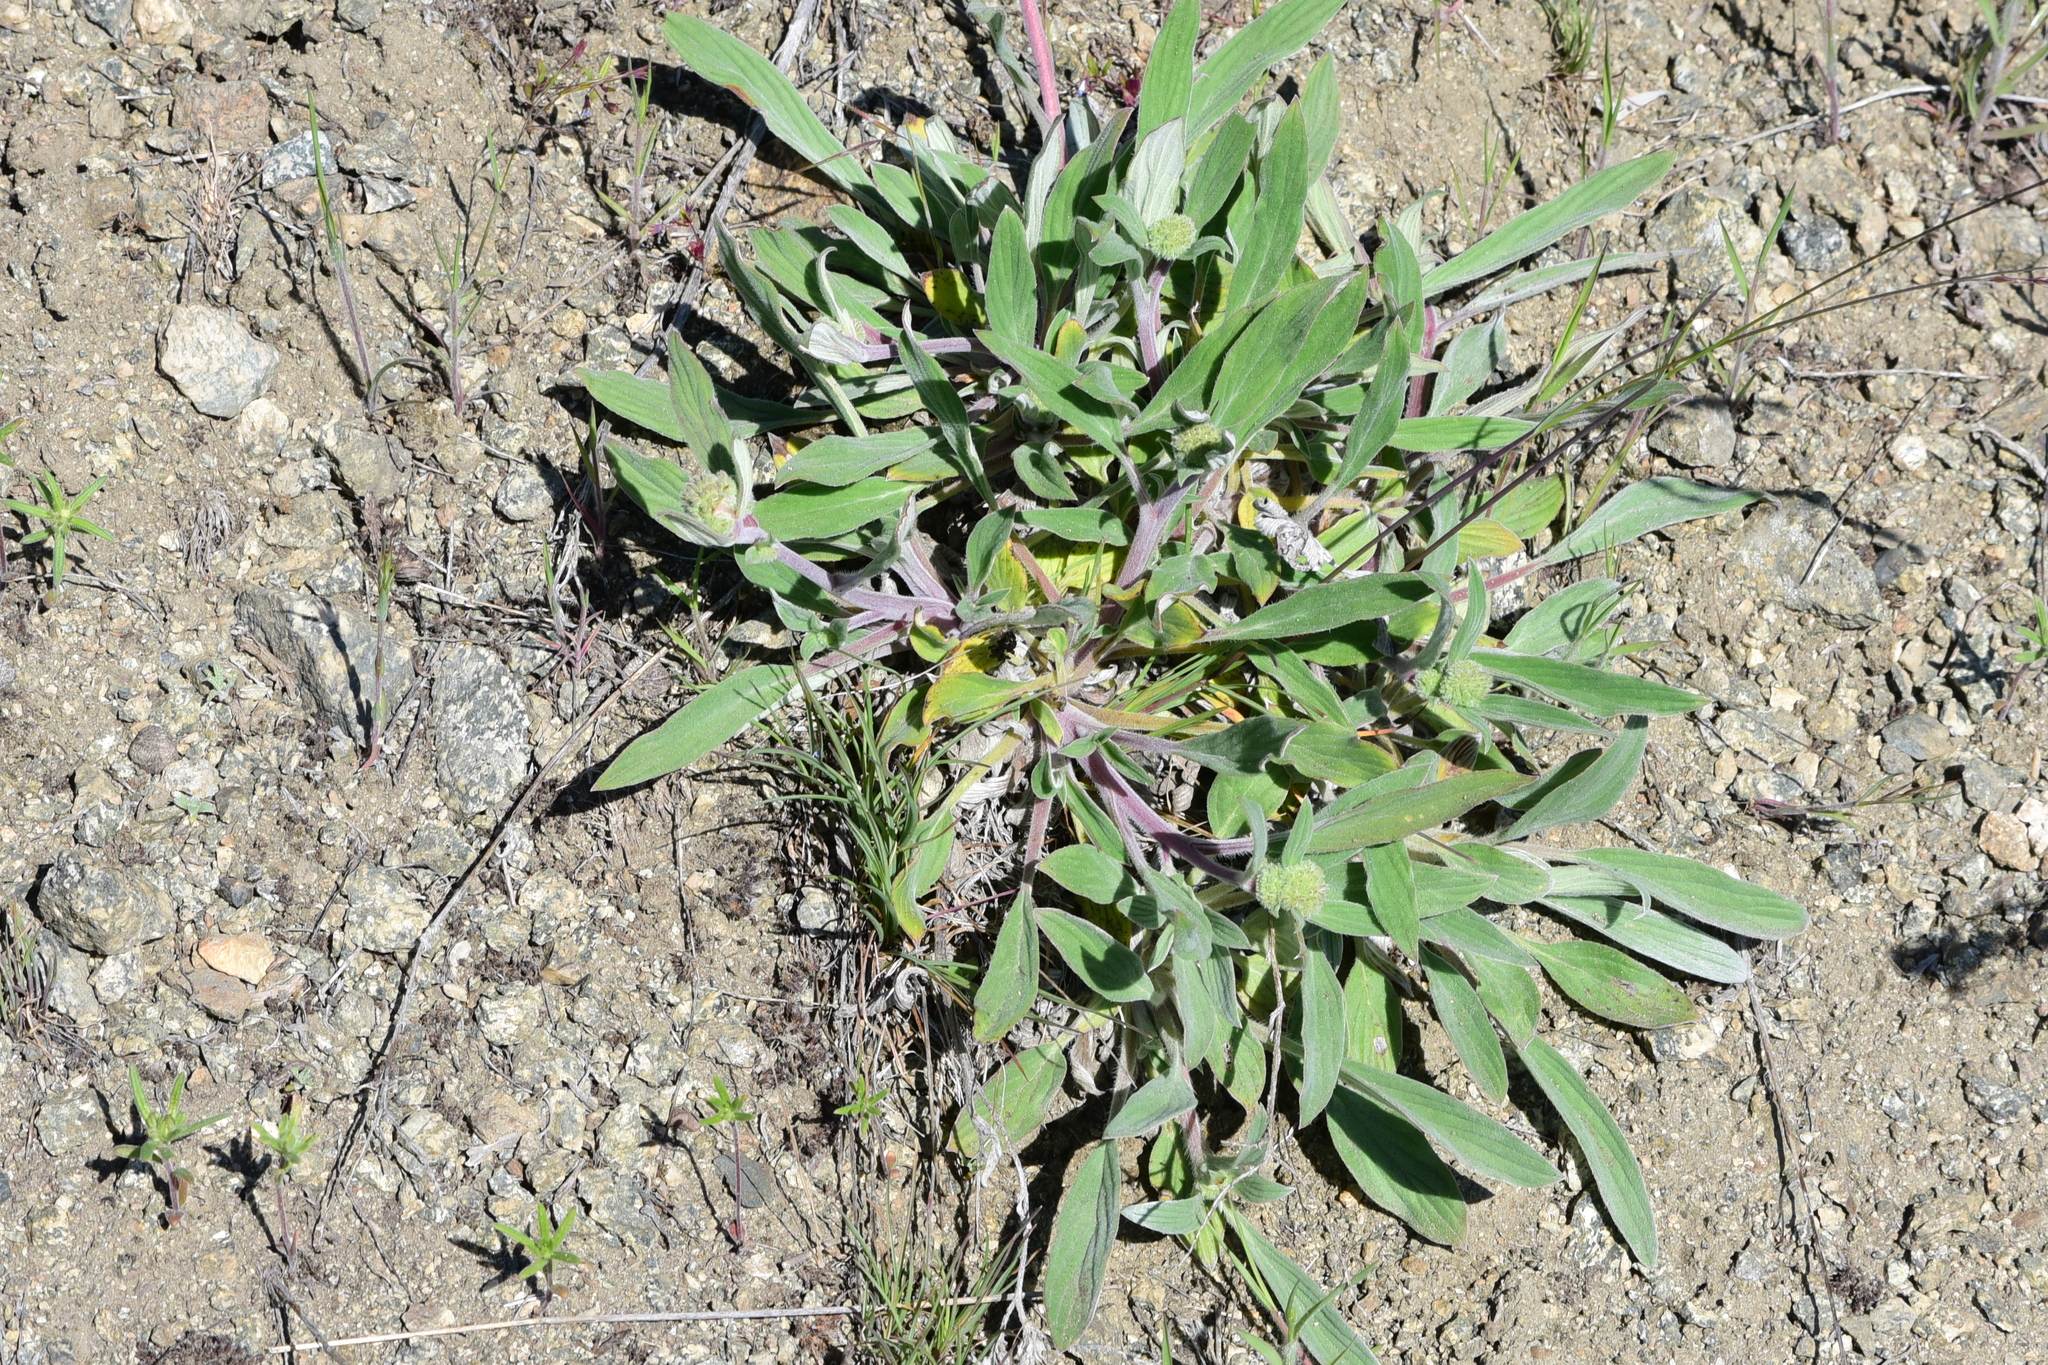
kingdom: Plantae
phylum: Tracheophyta
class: Magnoliopsida
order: Boraginales
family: Hydrophyllaceae
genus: Phacelia
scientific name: Phacelia hastata
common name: Silver-leaved phacelia
